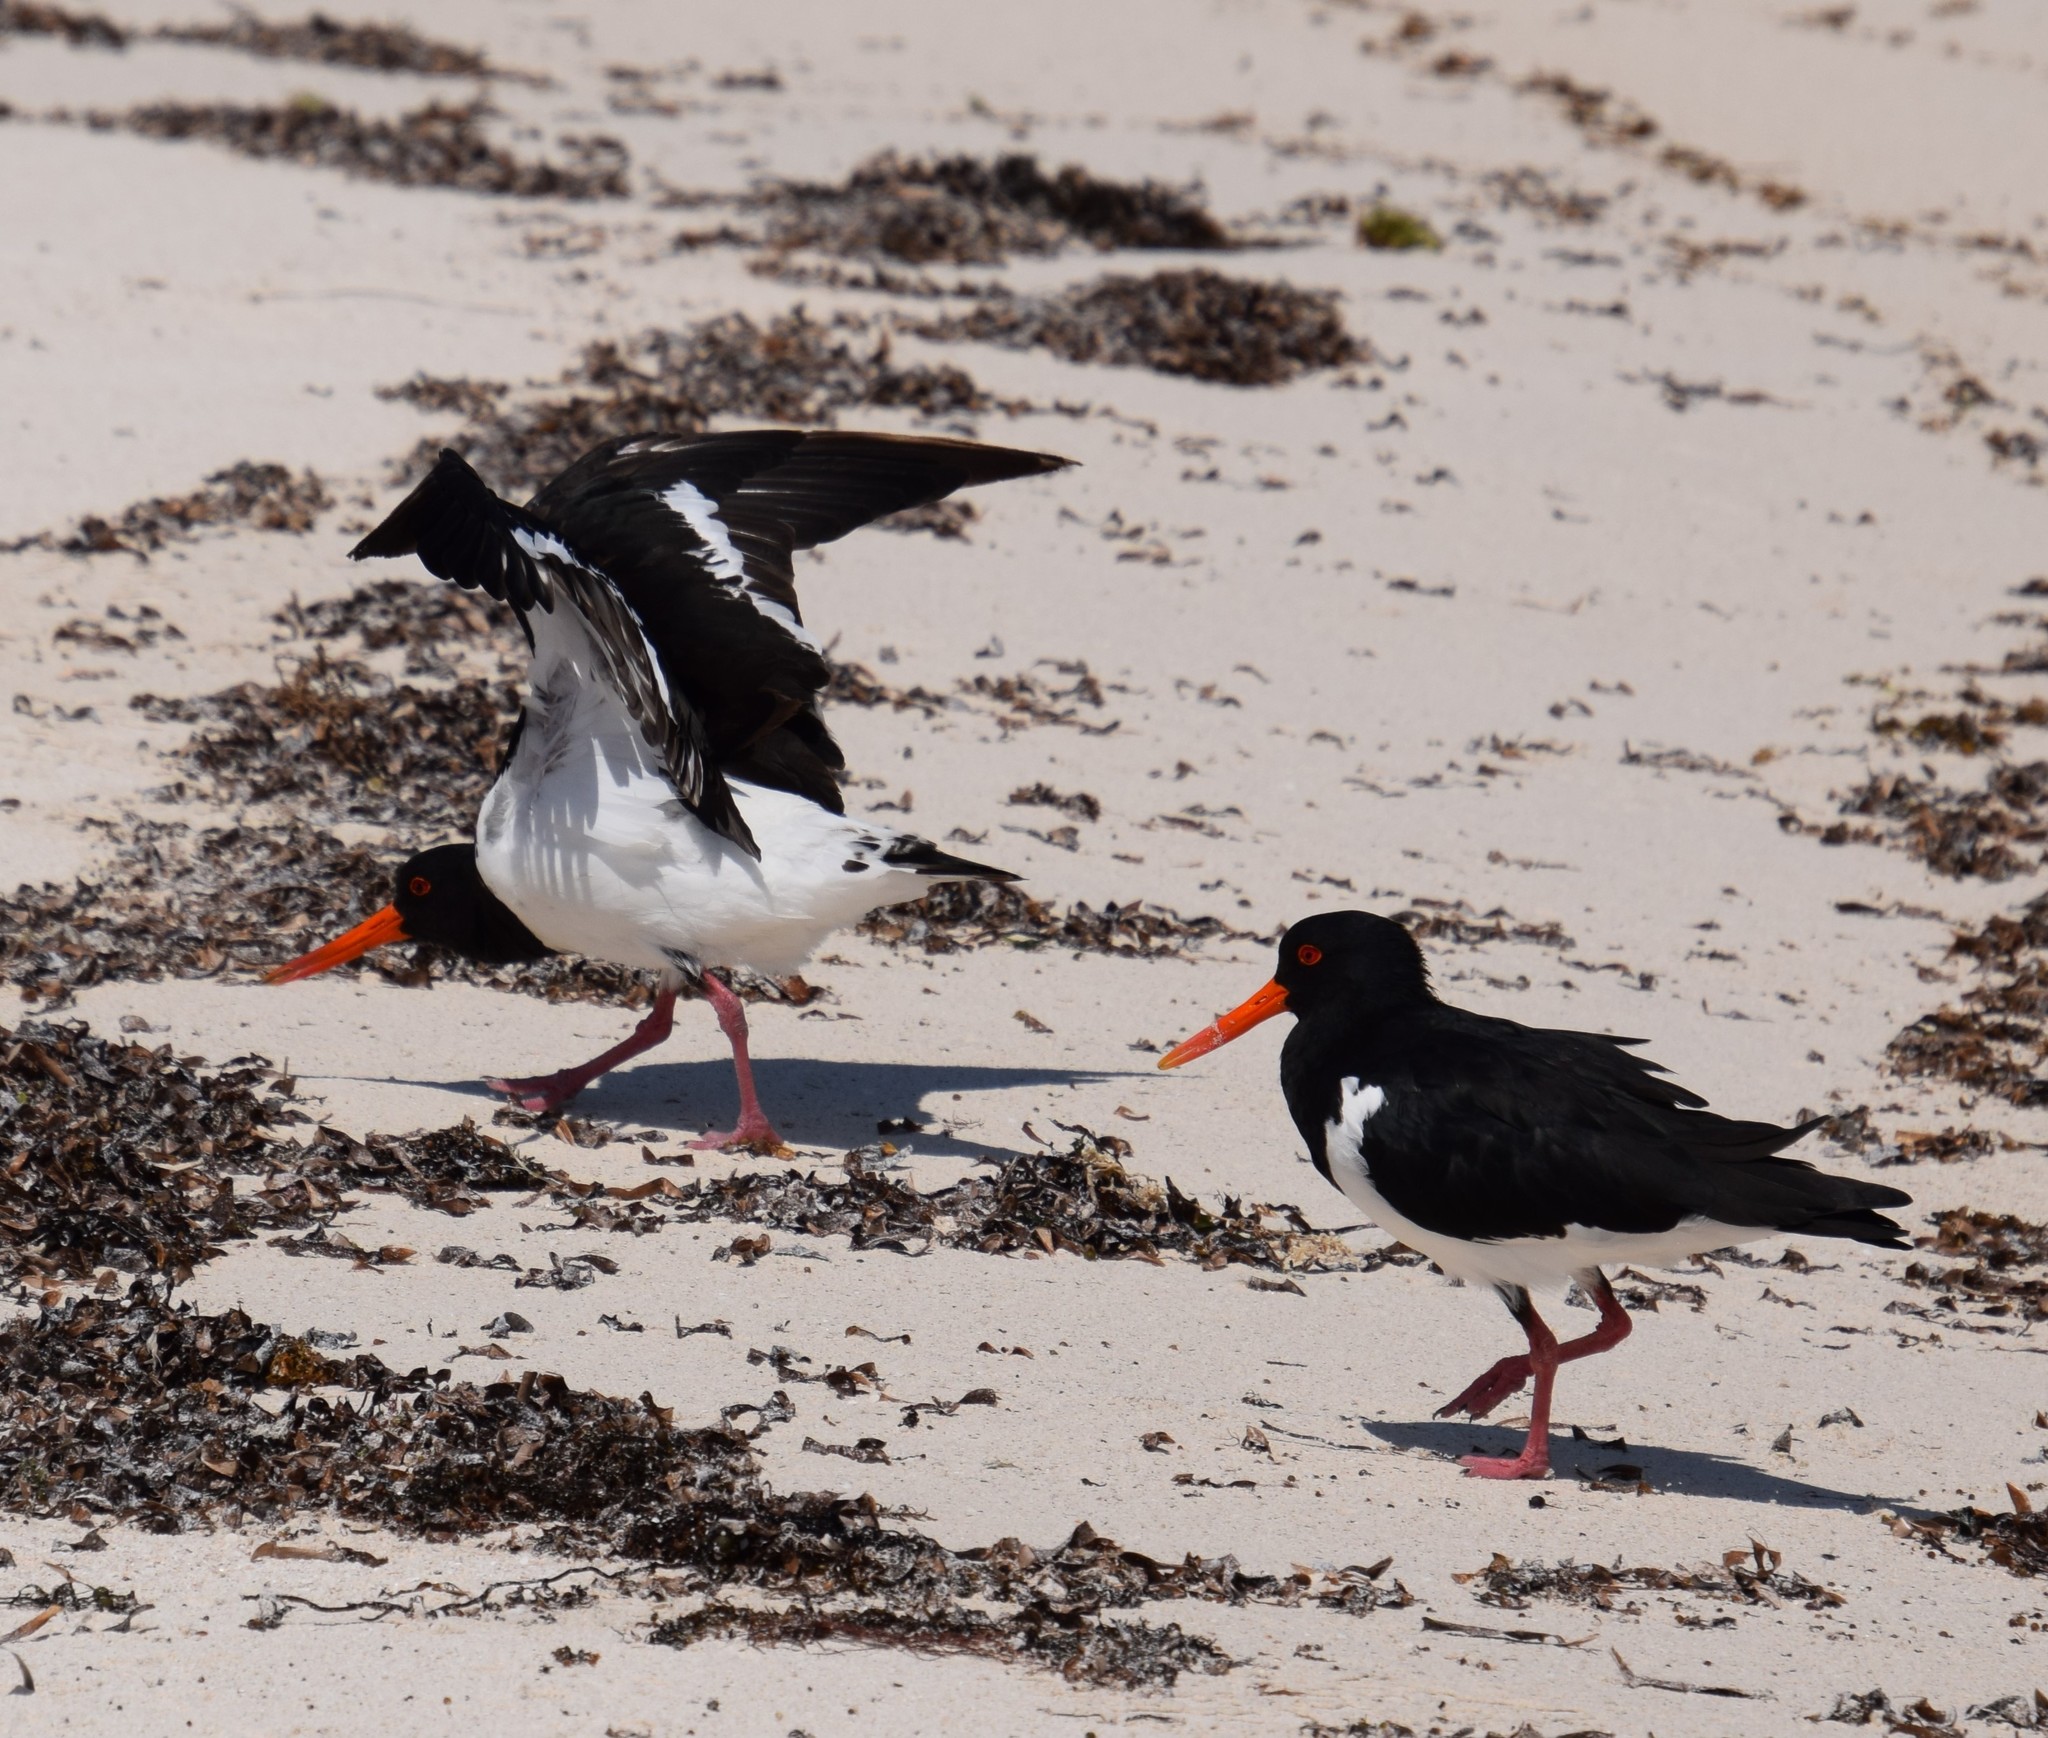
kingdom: Animalia
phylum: Chordata
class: Aves
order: Charadriiformes
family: Haematopodidae
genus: Haematopus
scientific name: Haematopus longirostris
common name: Pied oystercatcher
